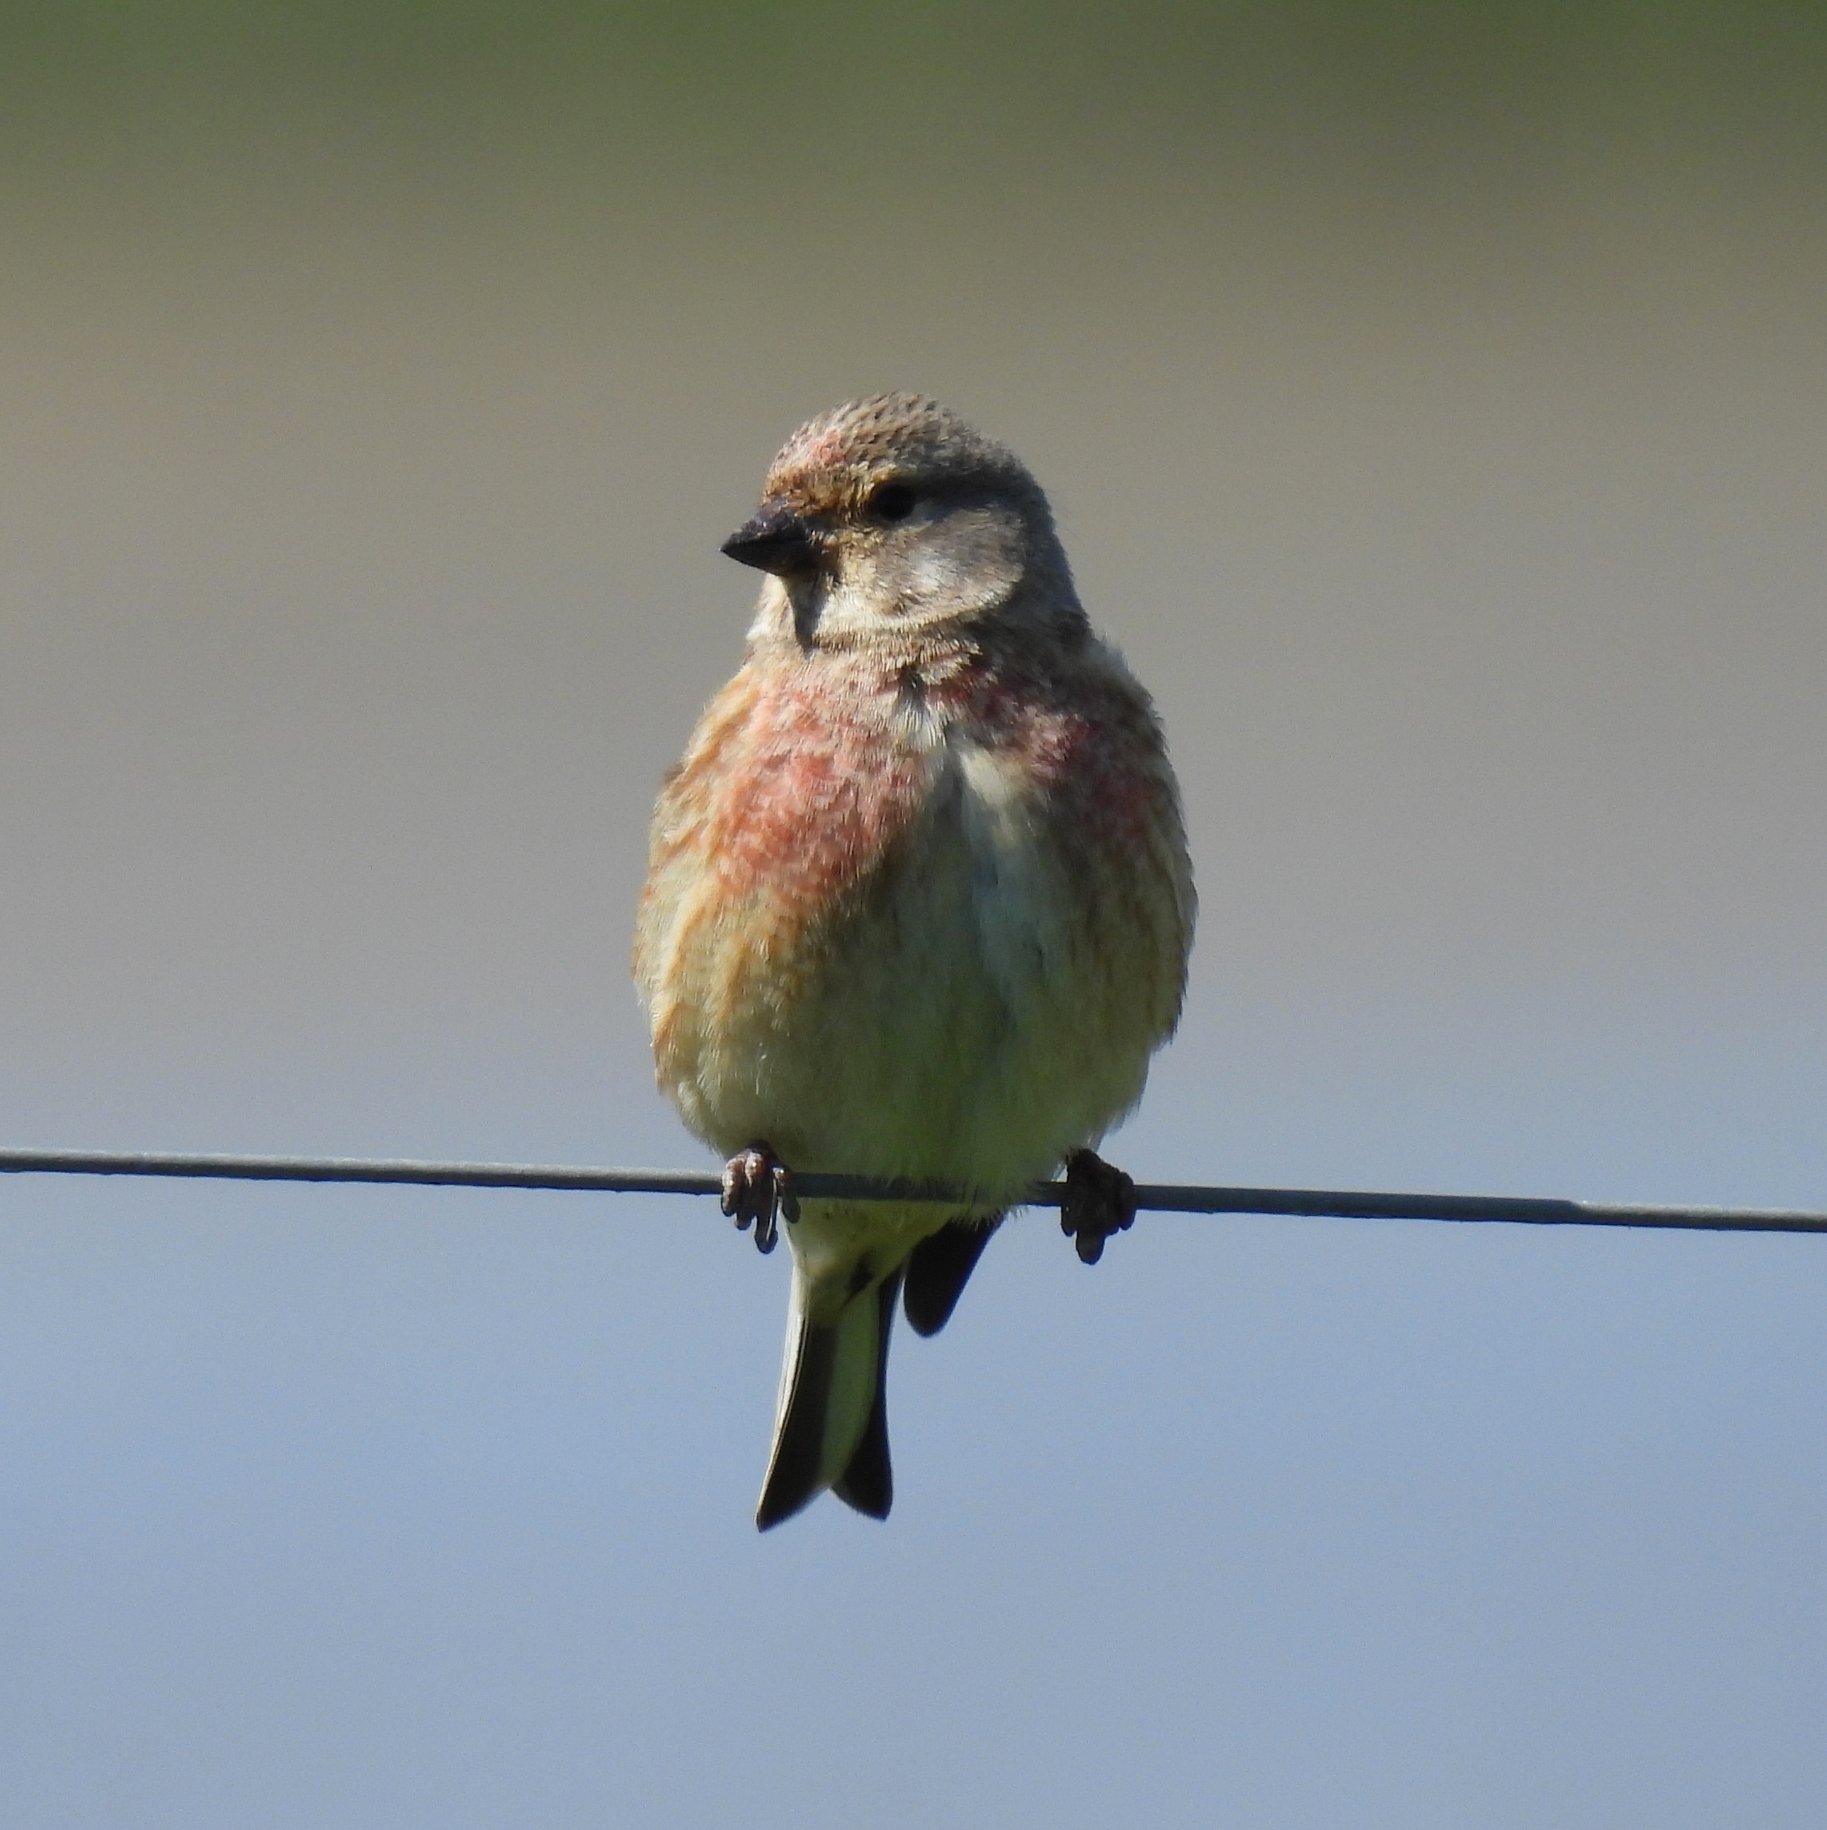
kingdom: Animalia
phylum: Chordata
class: Aves
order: Passeriformes
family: Fringillidae
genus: Linaria
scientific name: Linaria cannabina
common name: Common linnet
